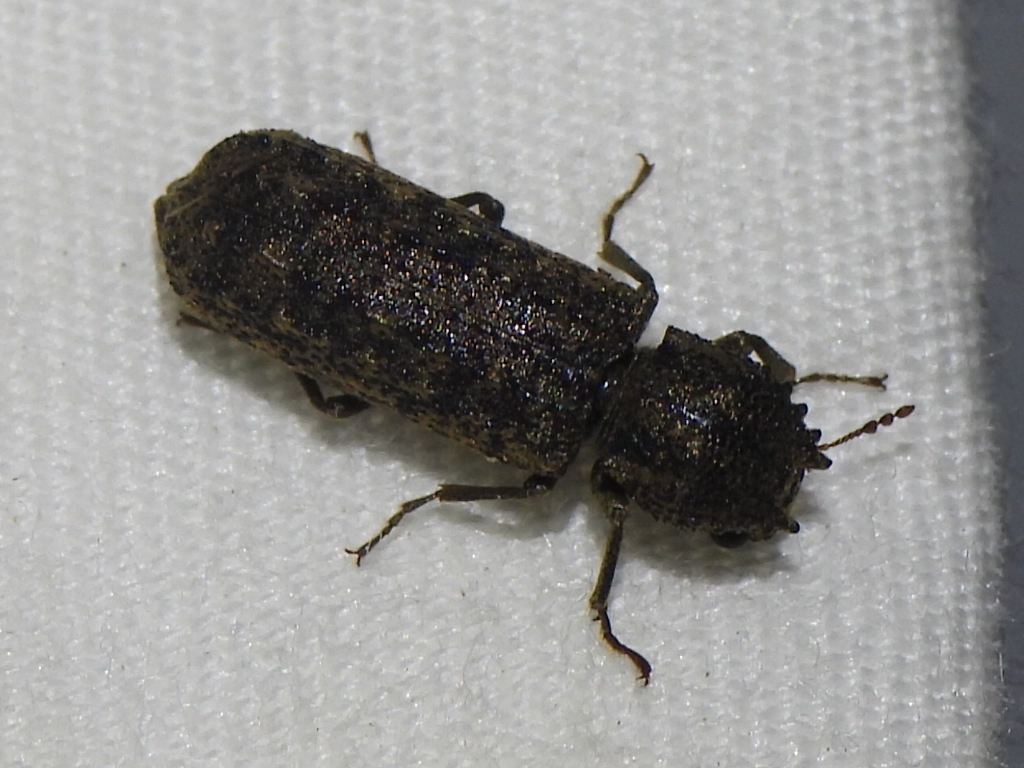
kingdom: Animalia
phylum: Arthropoda
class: Insecta
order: Coleoptera
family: Bostrichidae
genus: Lichenophanes
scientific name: Lichenophanes bicornis
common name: Two-horned powder-post beetle
